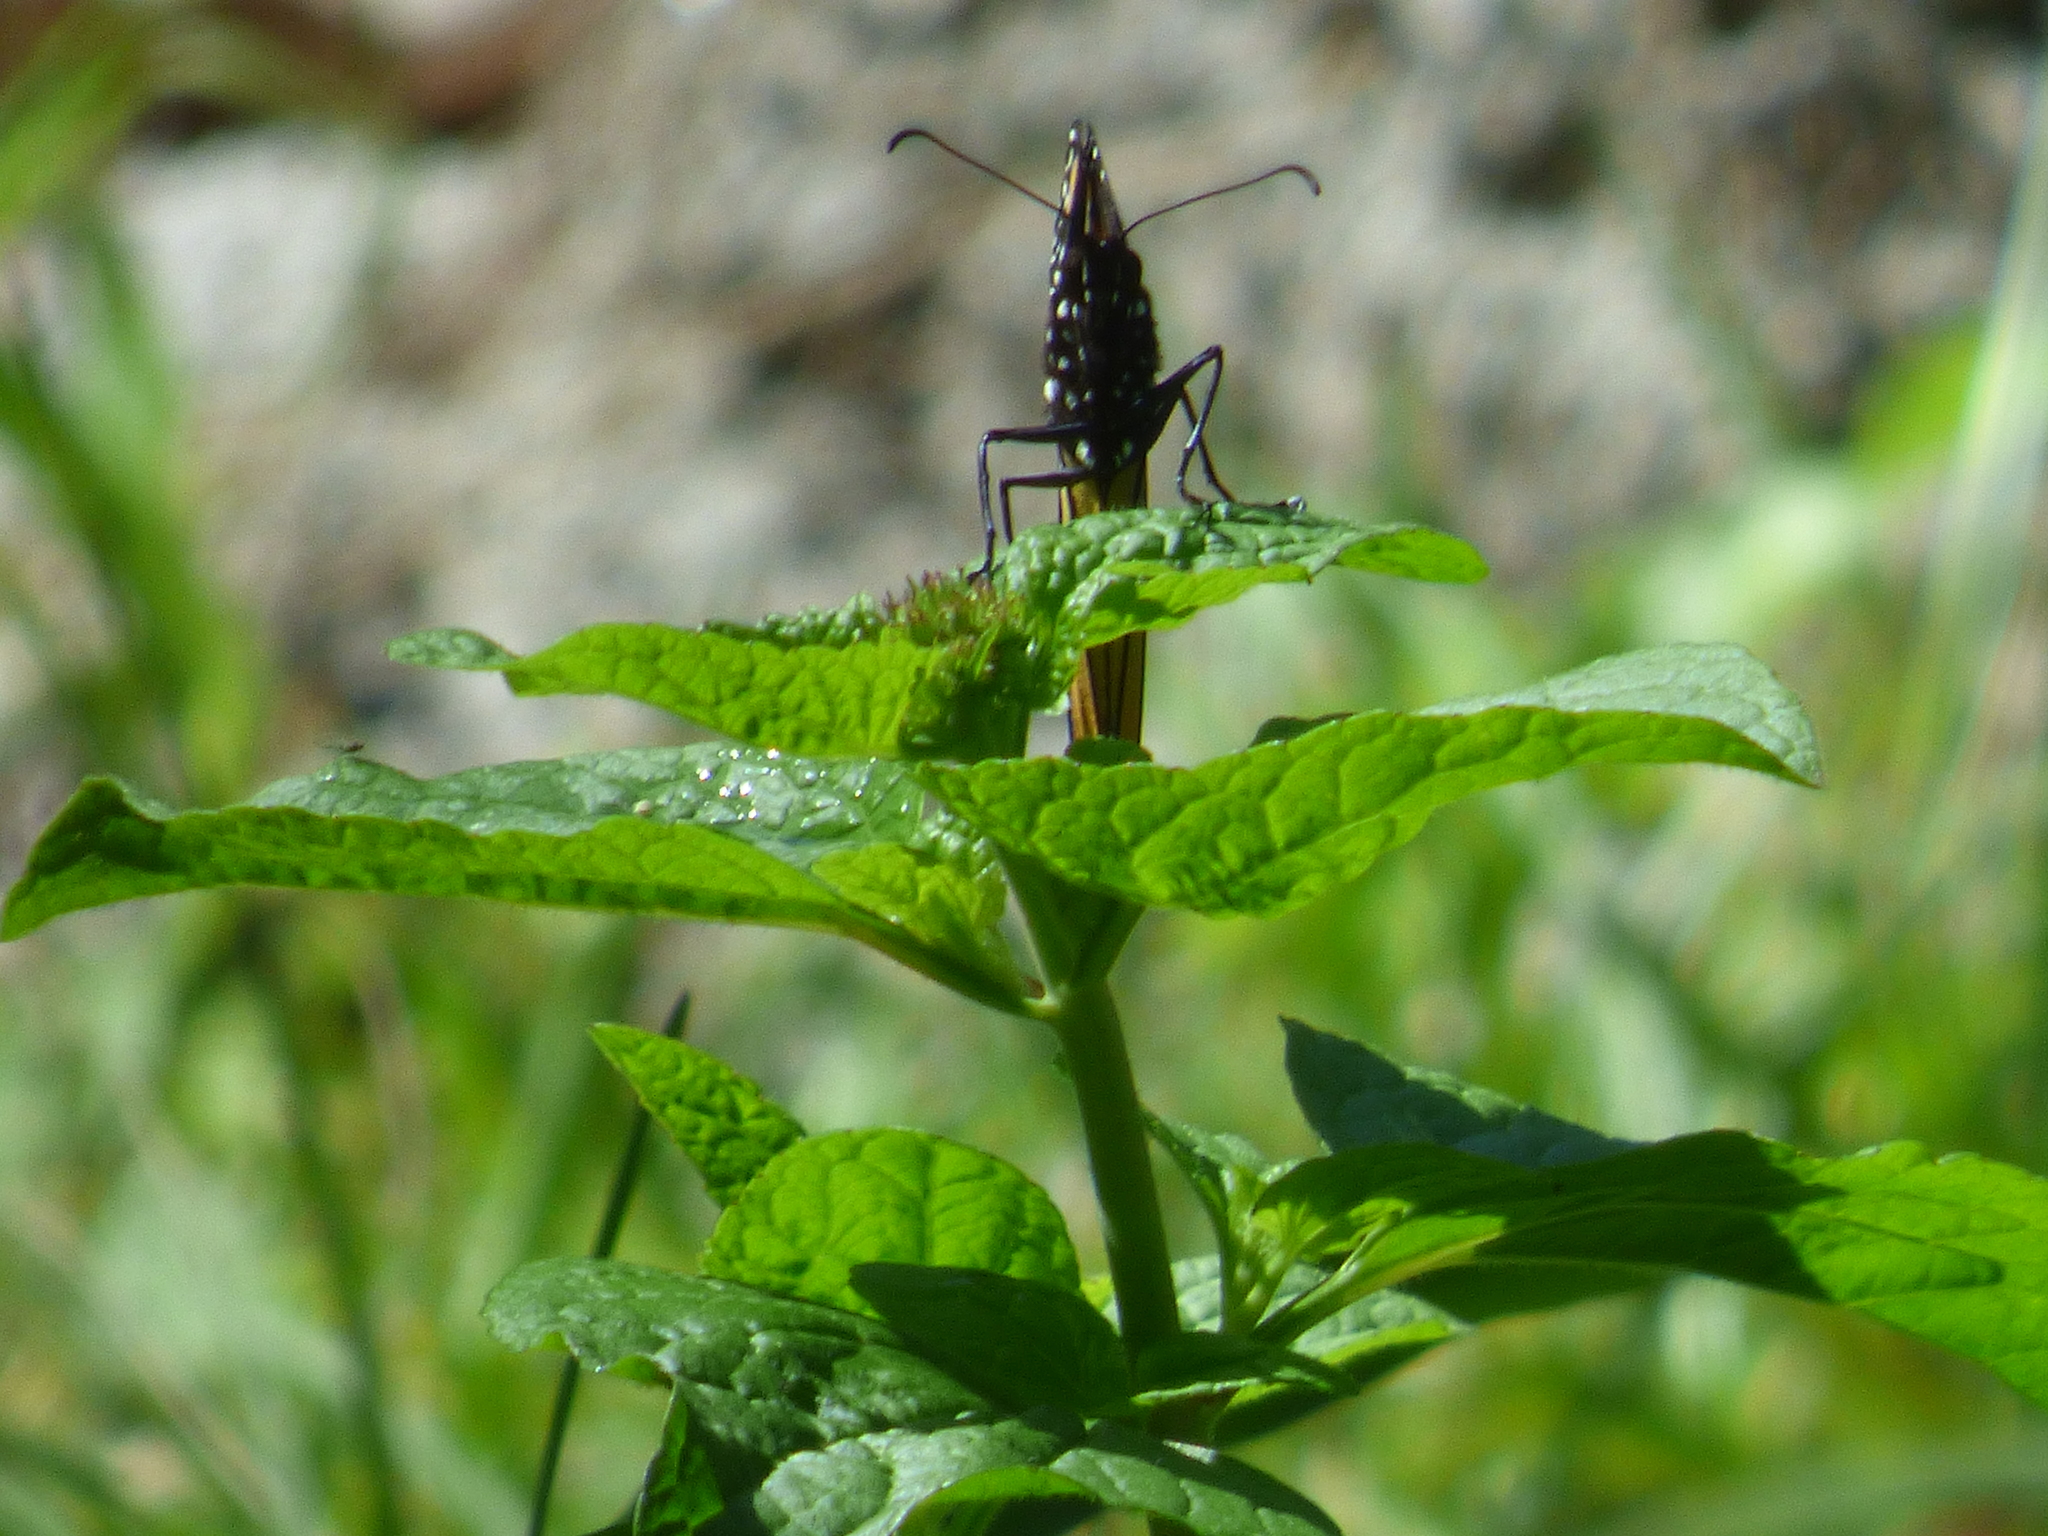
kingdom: Animalia
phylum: Arthropoda
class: Insecta
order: Lepidoptera
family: Nymphalidae
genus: Danaus
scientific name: Danaus plexippus
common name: Monarch
